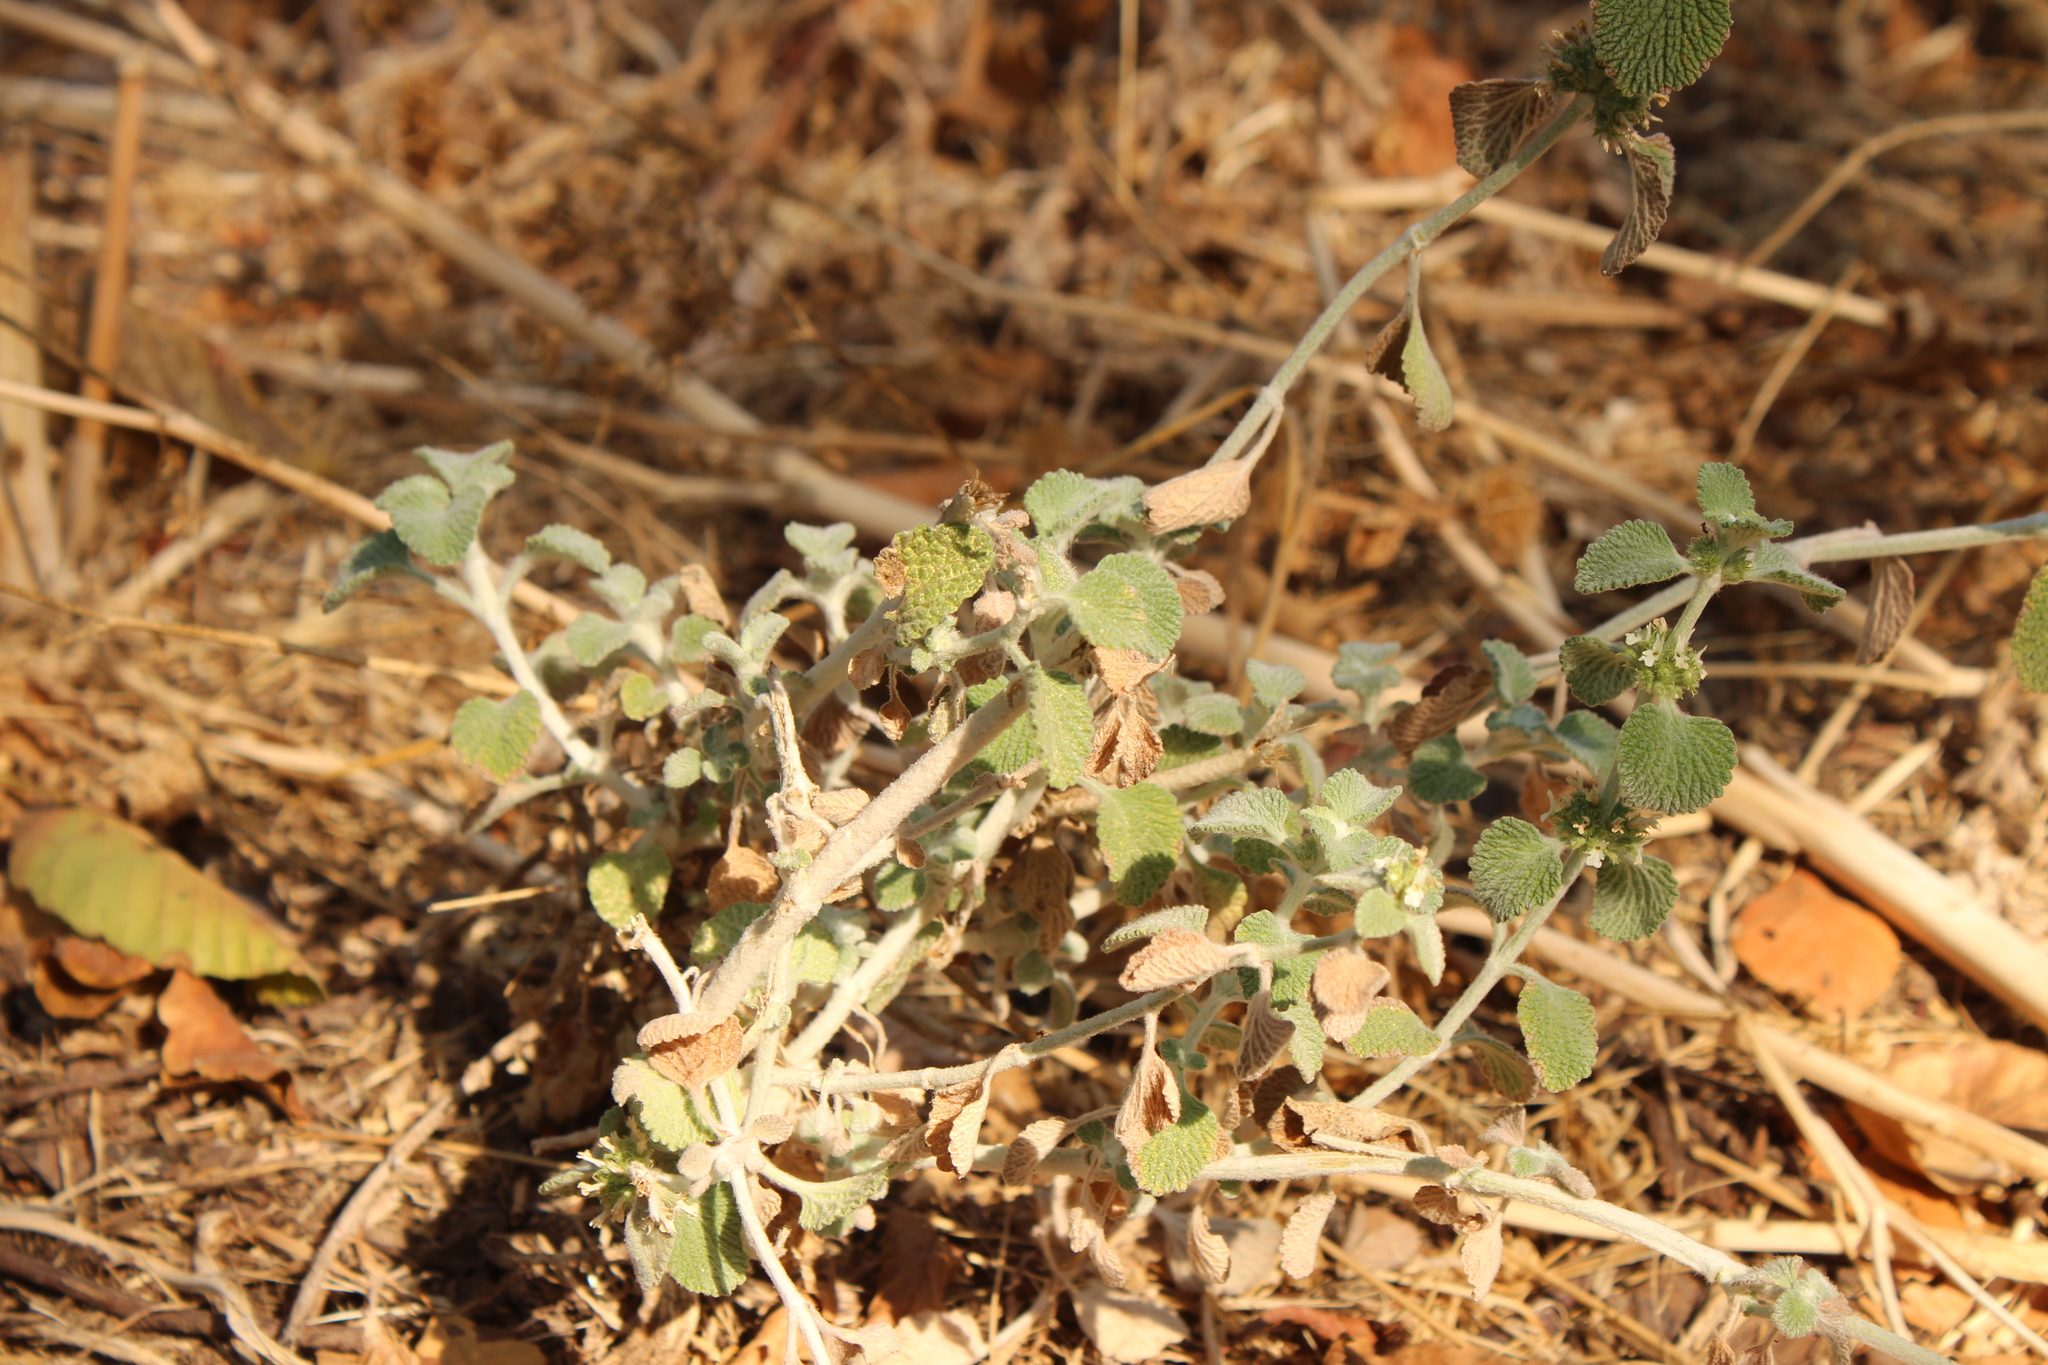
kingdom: Plantae
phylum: Tracheophyta
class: Magnoliopsida
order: Lamiales
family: Lamiaceae
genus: Marrubium
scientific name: Marrubium vulgare
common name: Horehound
